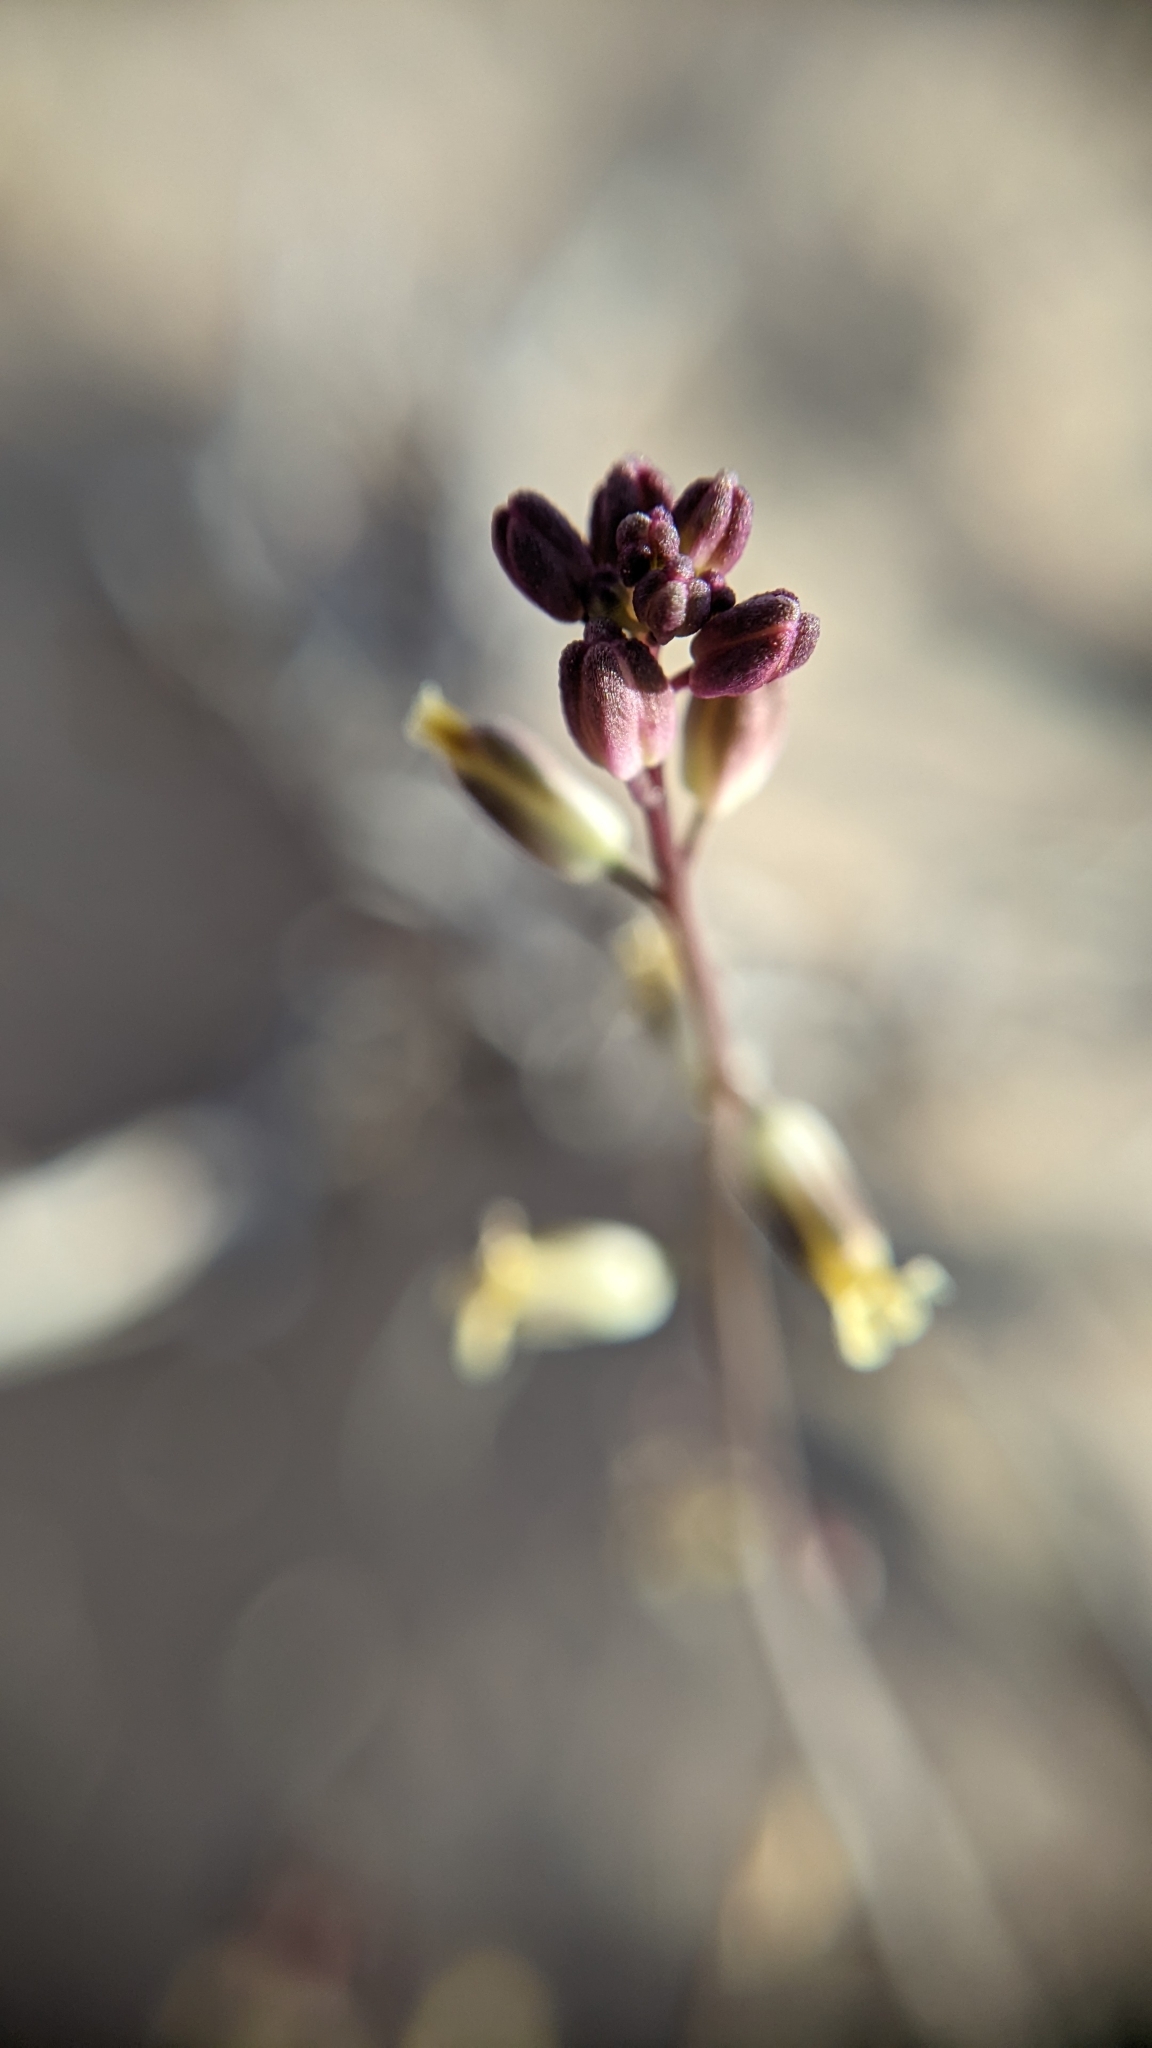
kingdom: Plantae
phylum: Tracheophyta
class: Magnoliopsida
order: Brassicales
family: Brassicaceae
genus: Streptanthus
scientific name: Streptanthus longirostris
